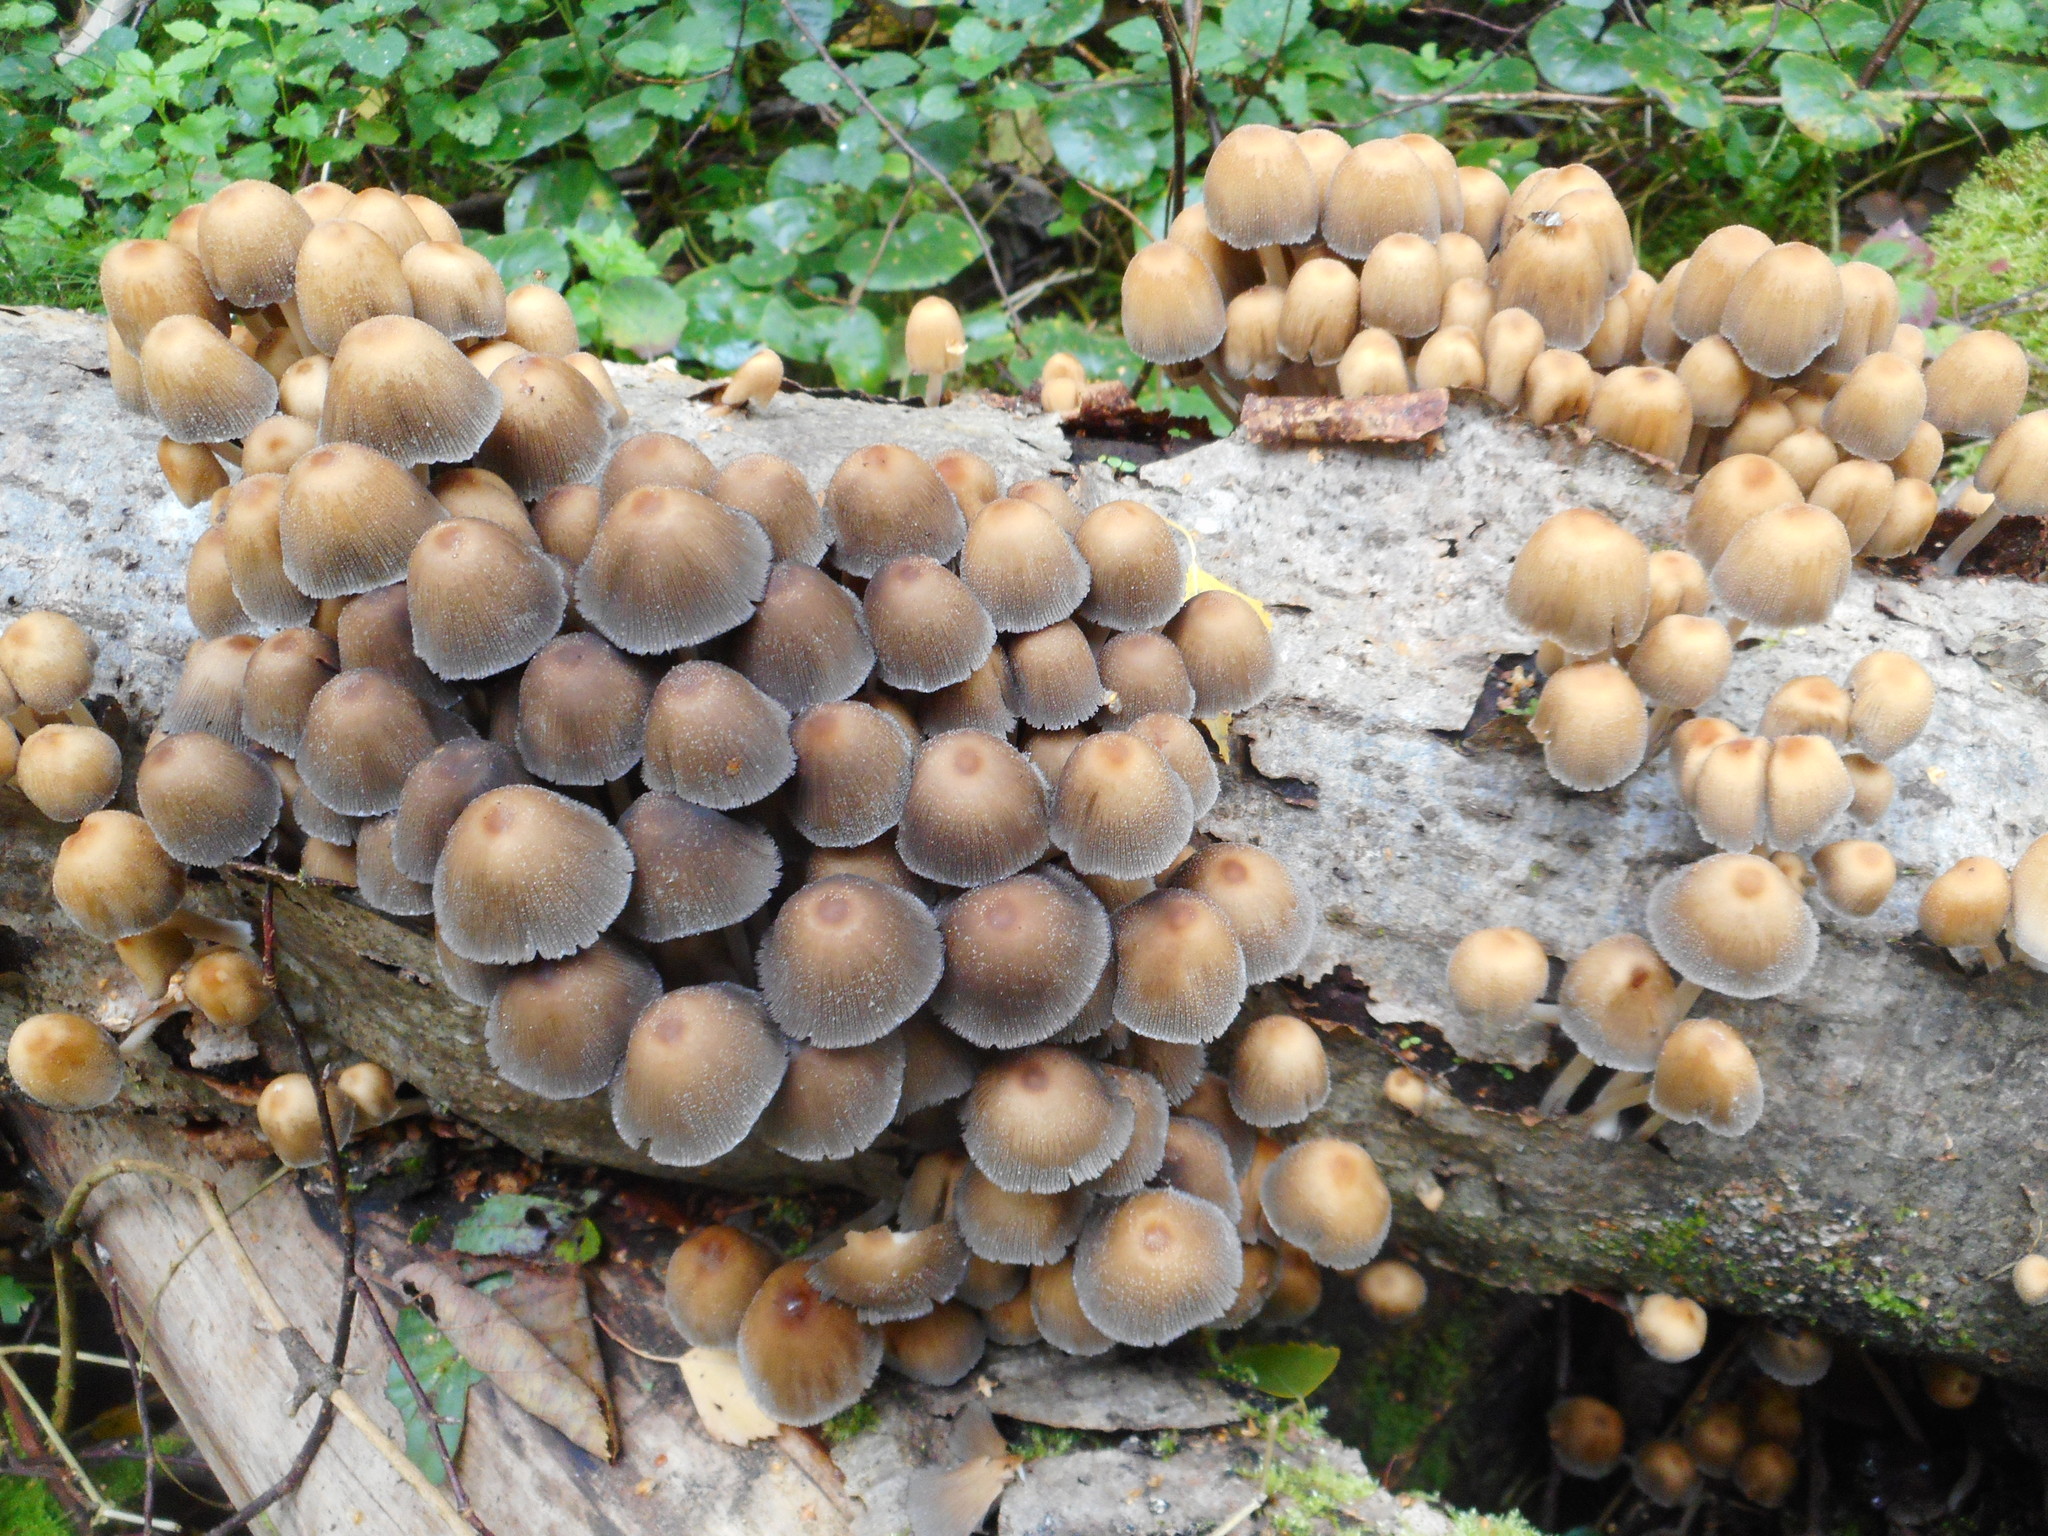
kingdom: Fungi
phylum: Basidiomycota
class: Agaricomycetes
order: Agaricales
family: Psathyrellaceae
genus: Coprinellus
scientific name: Coprinellus micaceus
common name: Glistening ink-cap
